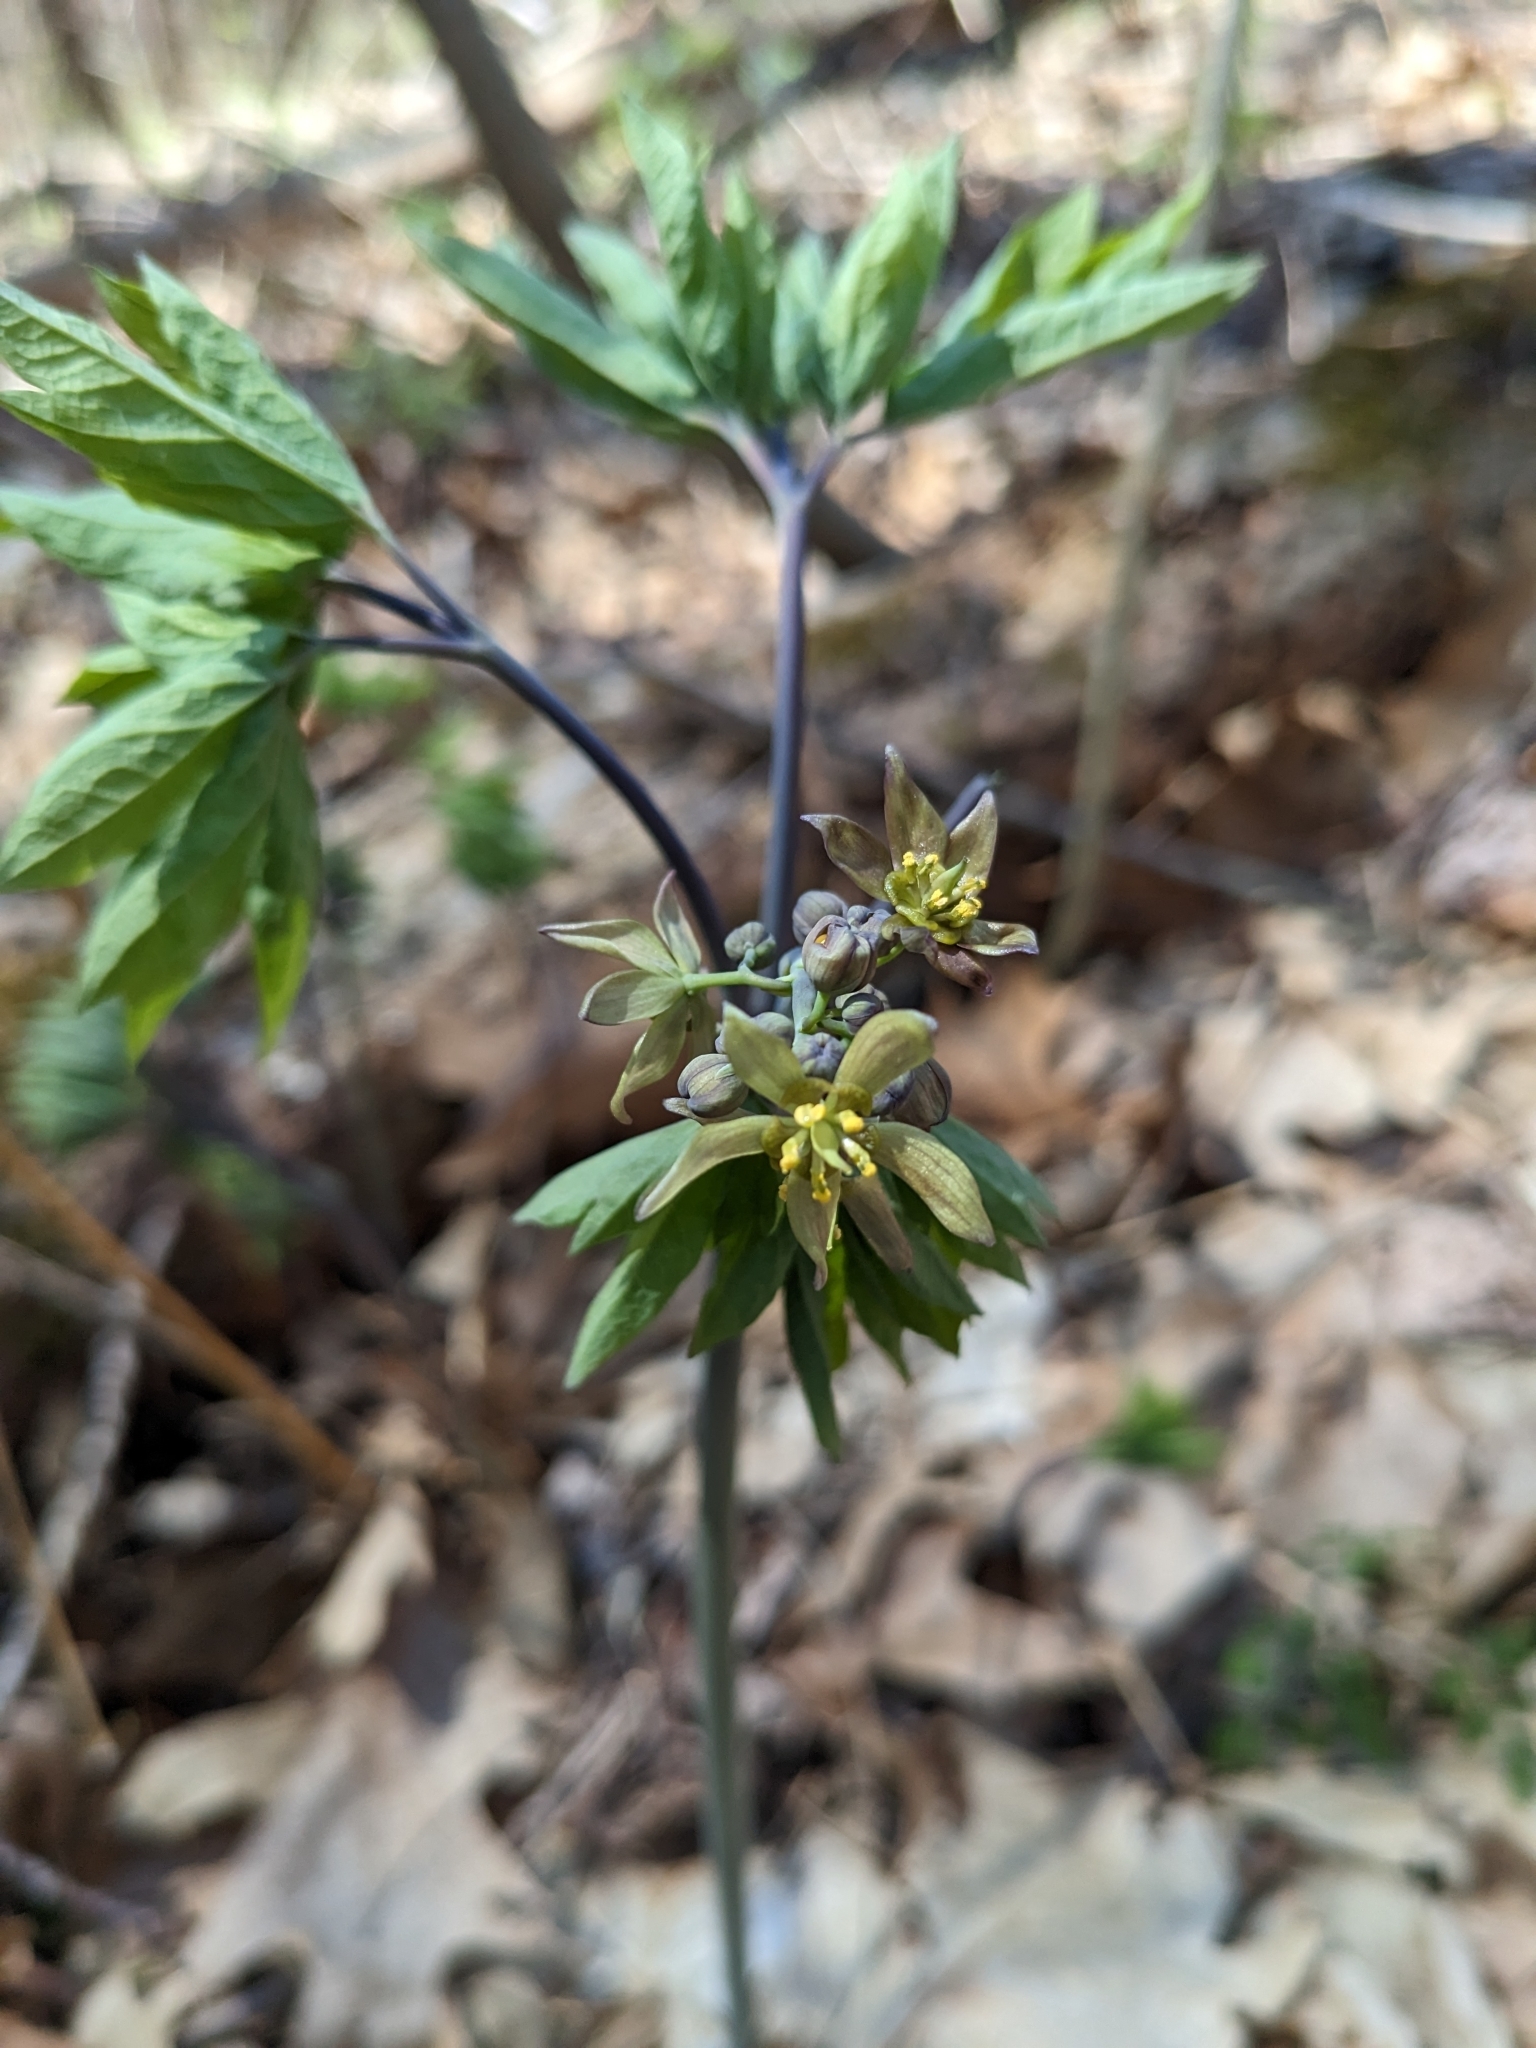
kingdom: Plantae
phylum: Tracheophyta
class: Magnoliopsida
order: Ranunculales
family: Berberidaceae
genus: Caulophyllum
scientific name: Caulophyllum thalictroides
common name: Blue cohosh
